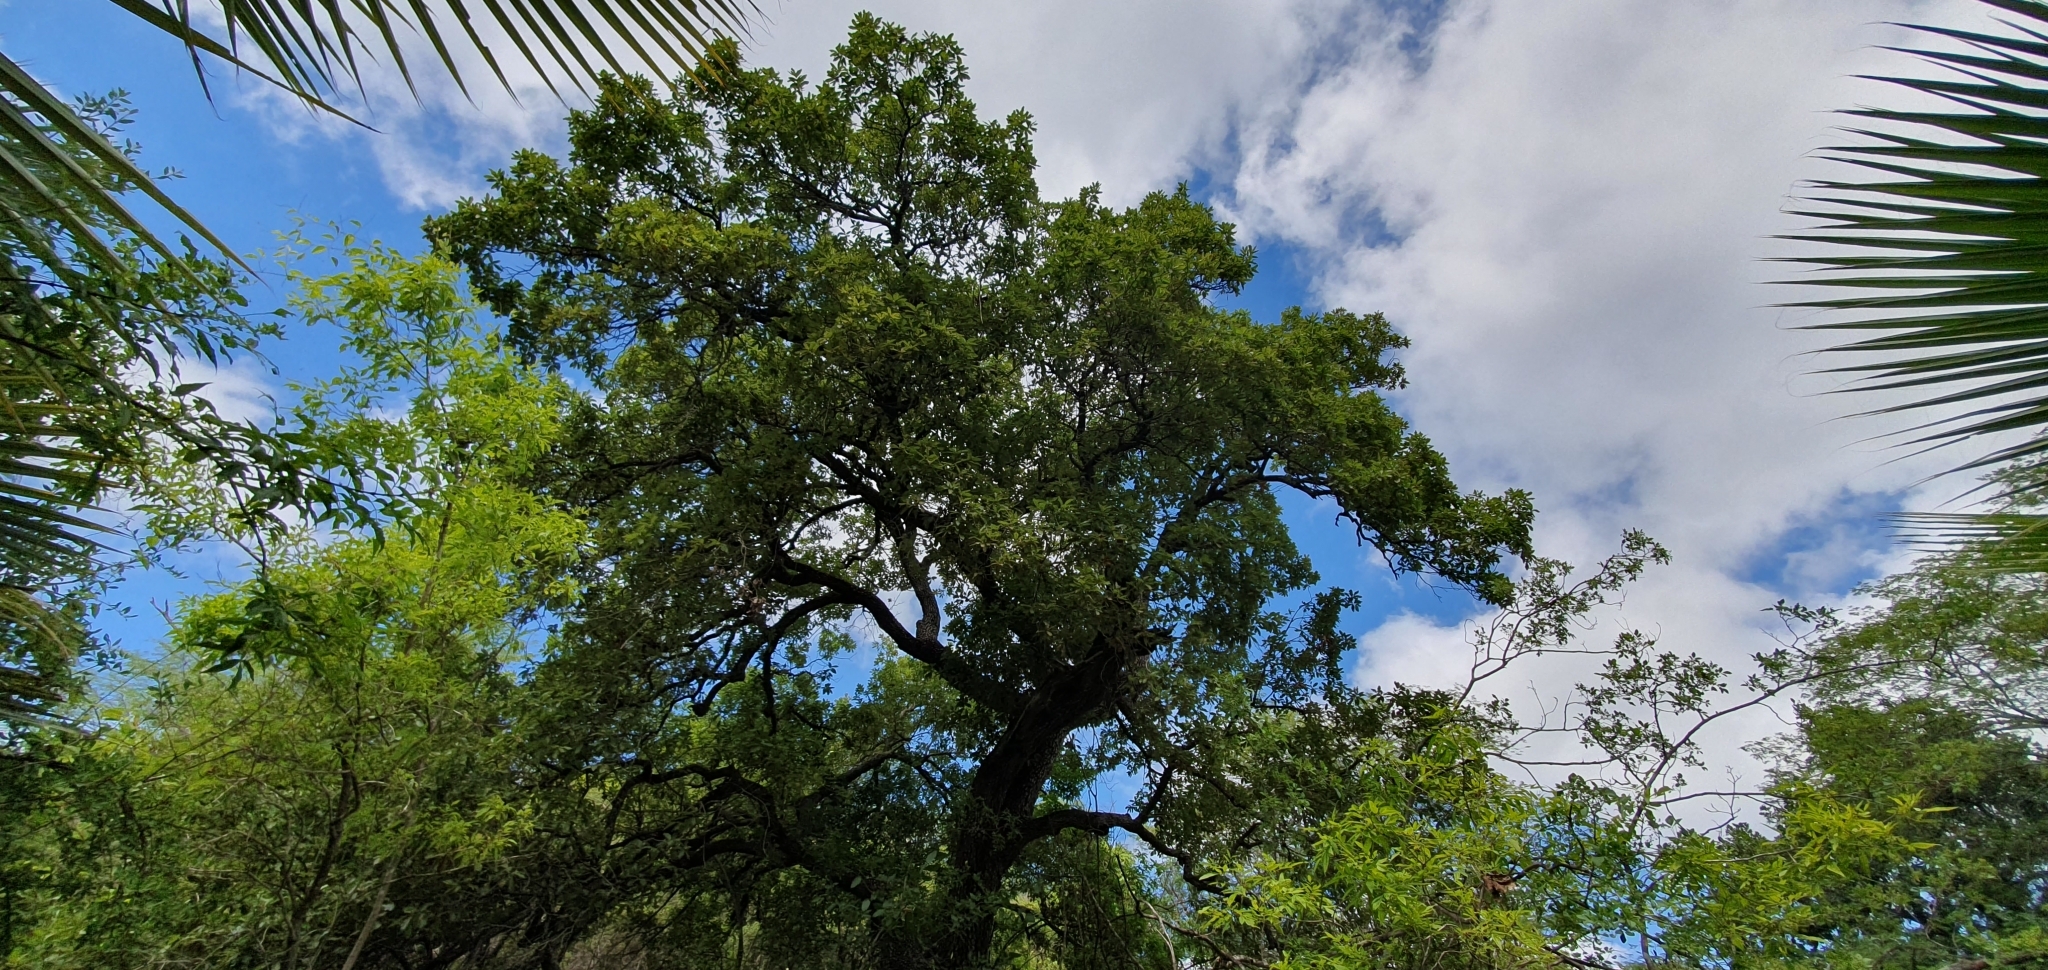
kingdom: Plantae
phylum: Tracheophyta
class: Magnoliopsida
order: Fagales
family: Fagaceae
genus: Quercus
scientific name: Quercus tuberculata
